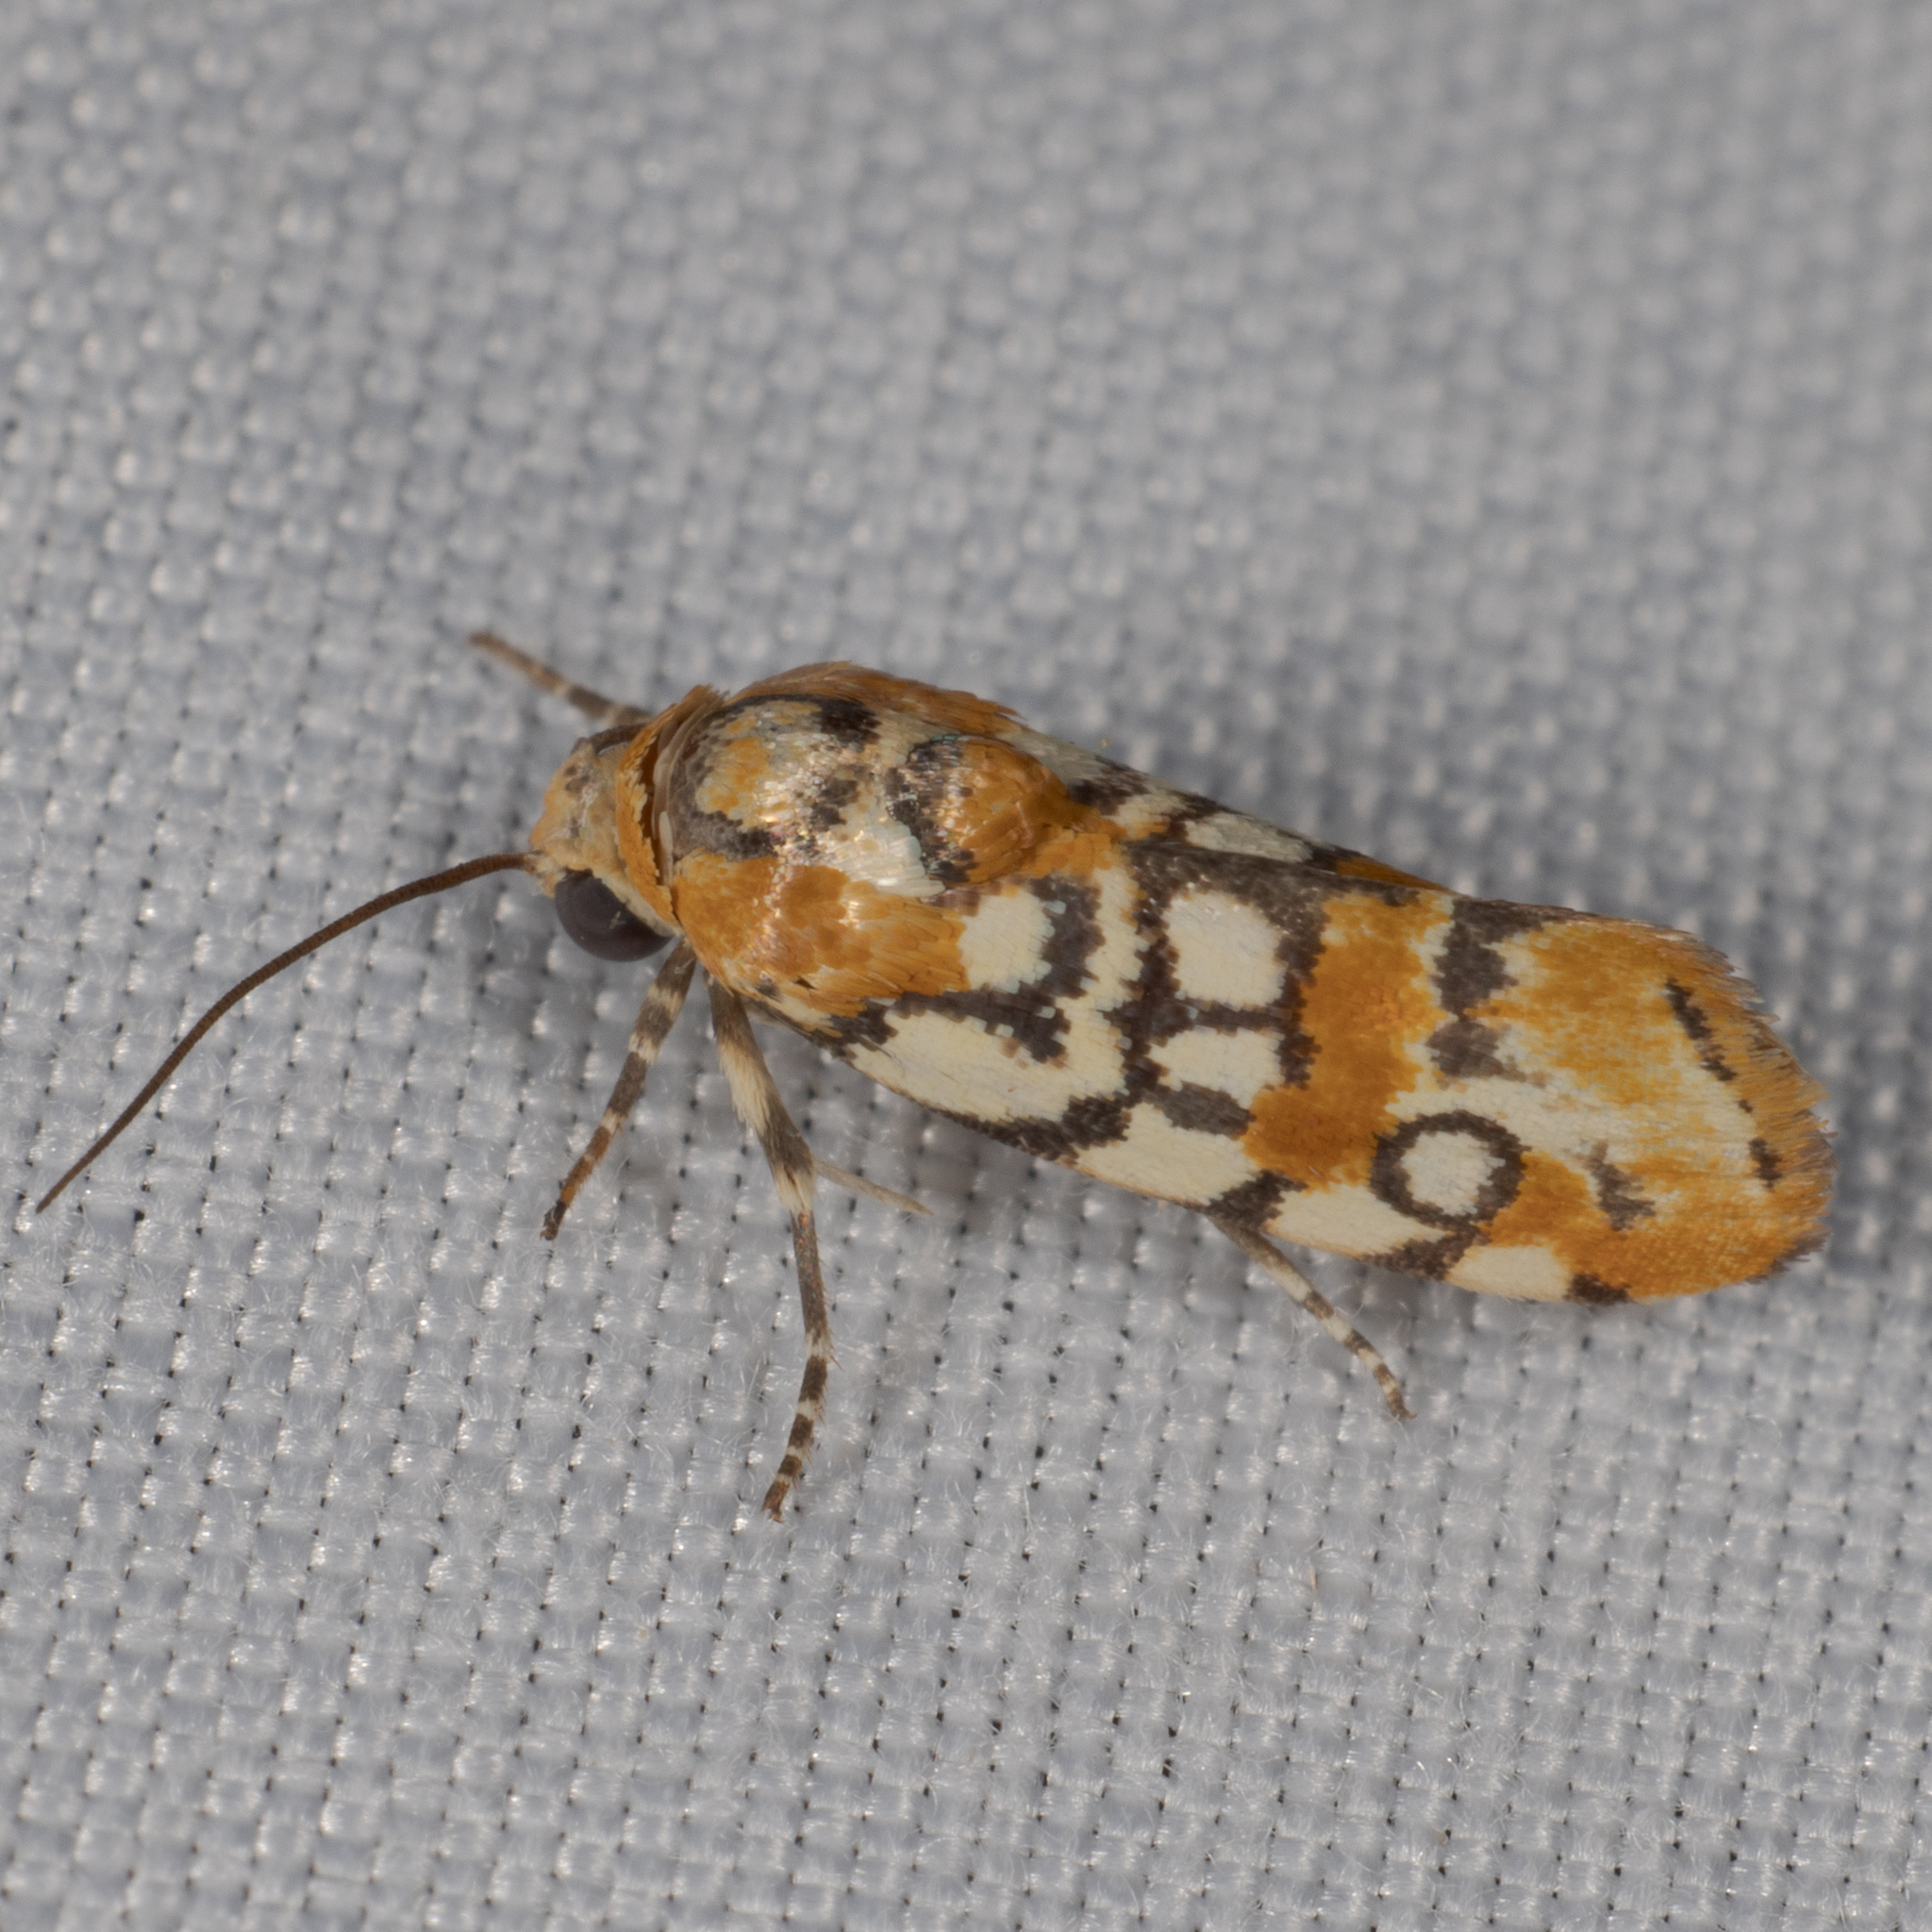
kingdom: Animalia
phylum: Arthropoda
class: Insecta
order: Lepidoptera
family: Noctuidae
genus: Spragueia
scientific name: Spragueia guttata
